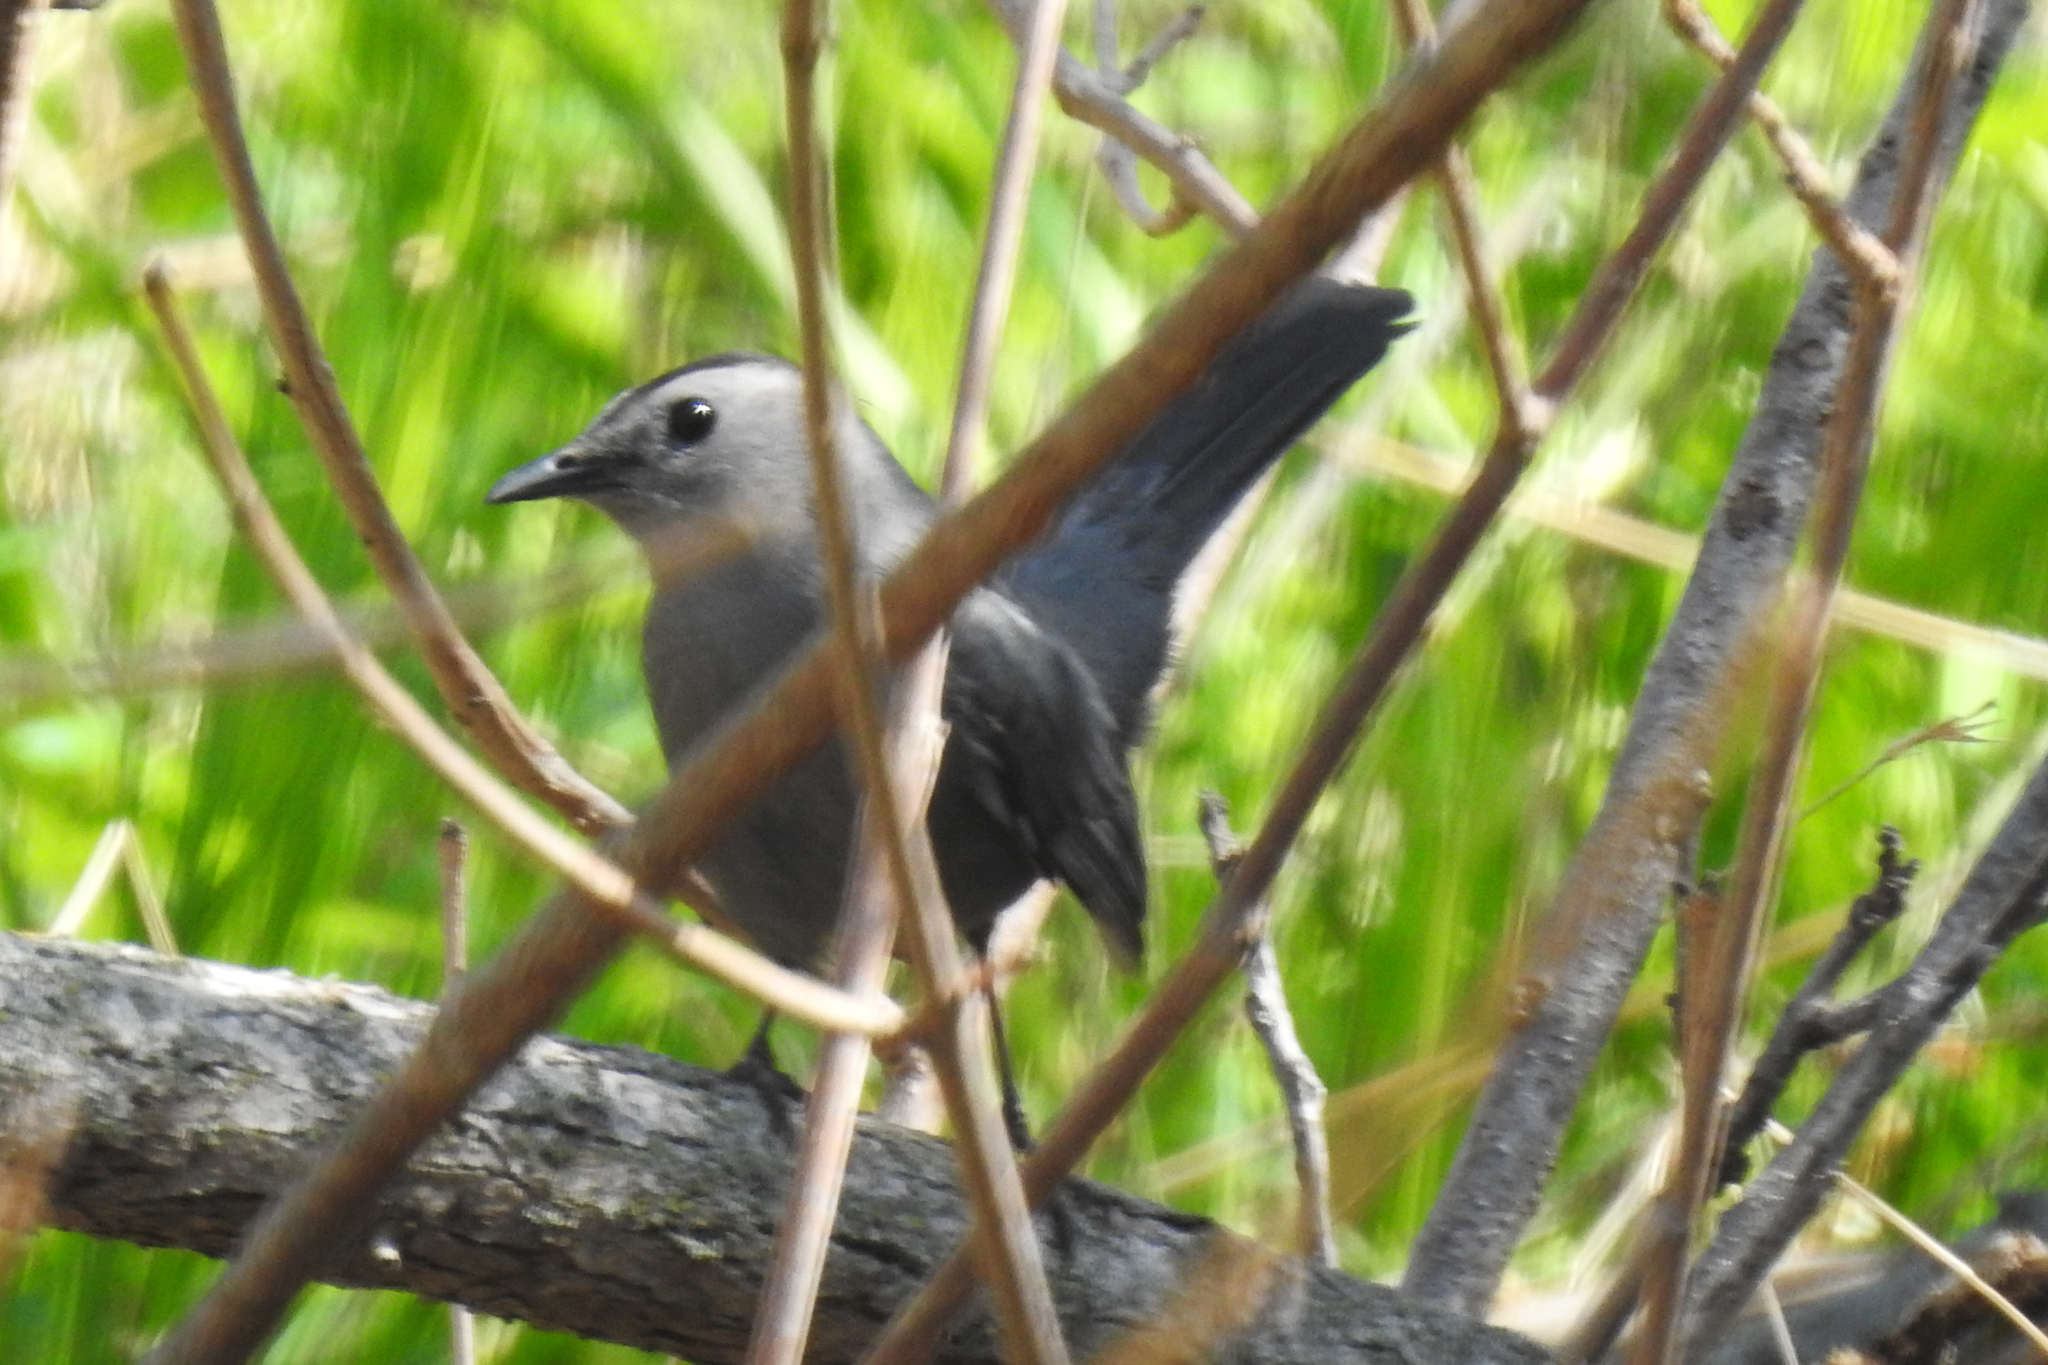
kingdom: Animalia
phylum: Chordata
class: Aves
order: Passeriformes
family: Mimidae
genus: Dumetella
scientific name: Dumetella carolinensis
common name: Gray catbird
